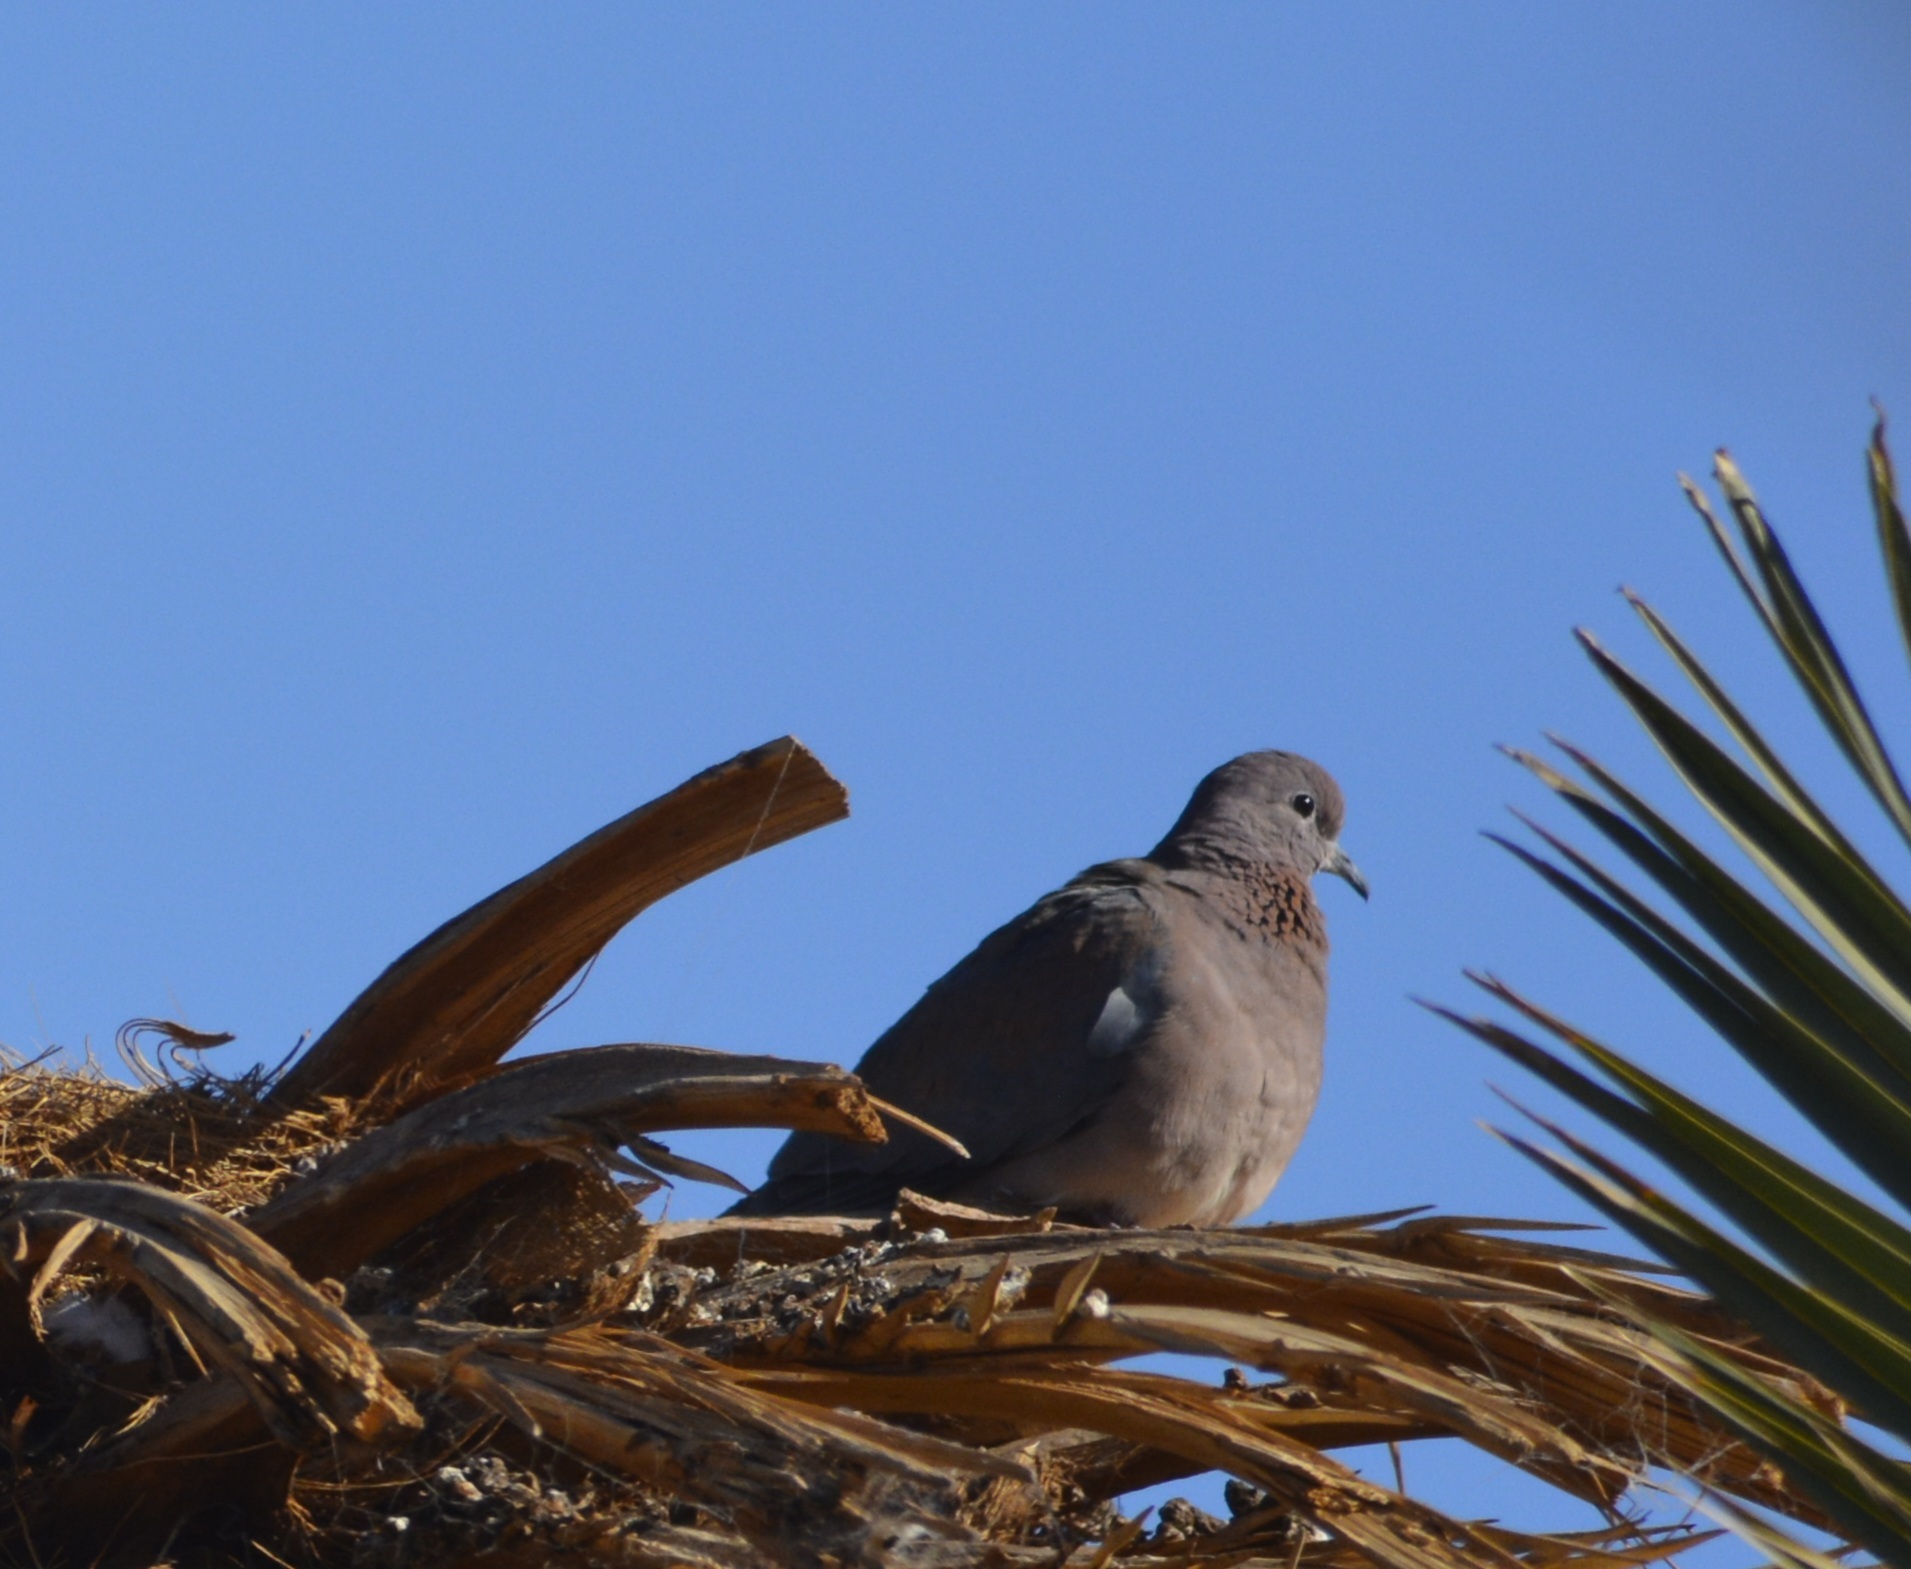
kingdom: Animalia
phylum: Chordata
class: Aves
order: Columbiformes
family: Columbidae
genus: Spilopelia
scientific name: Spilopelia senegalensis
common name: Laughing dove
